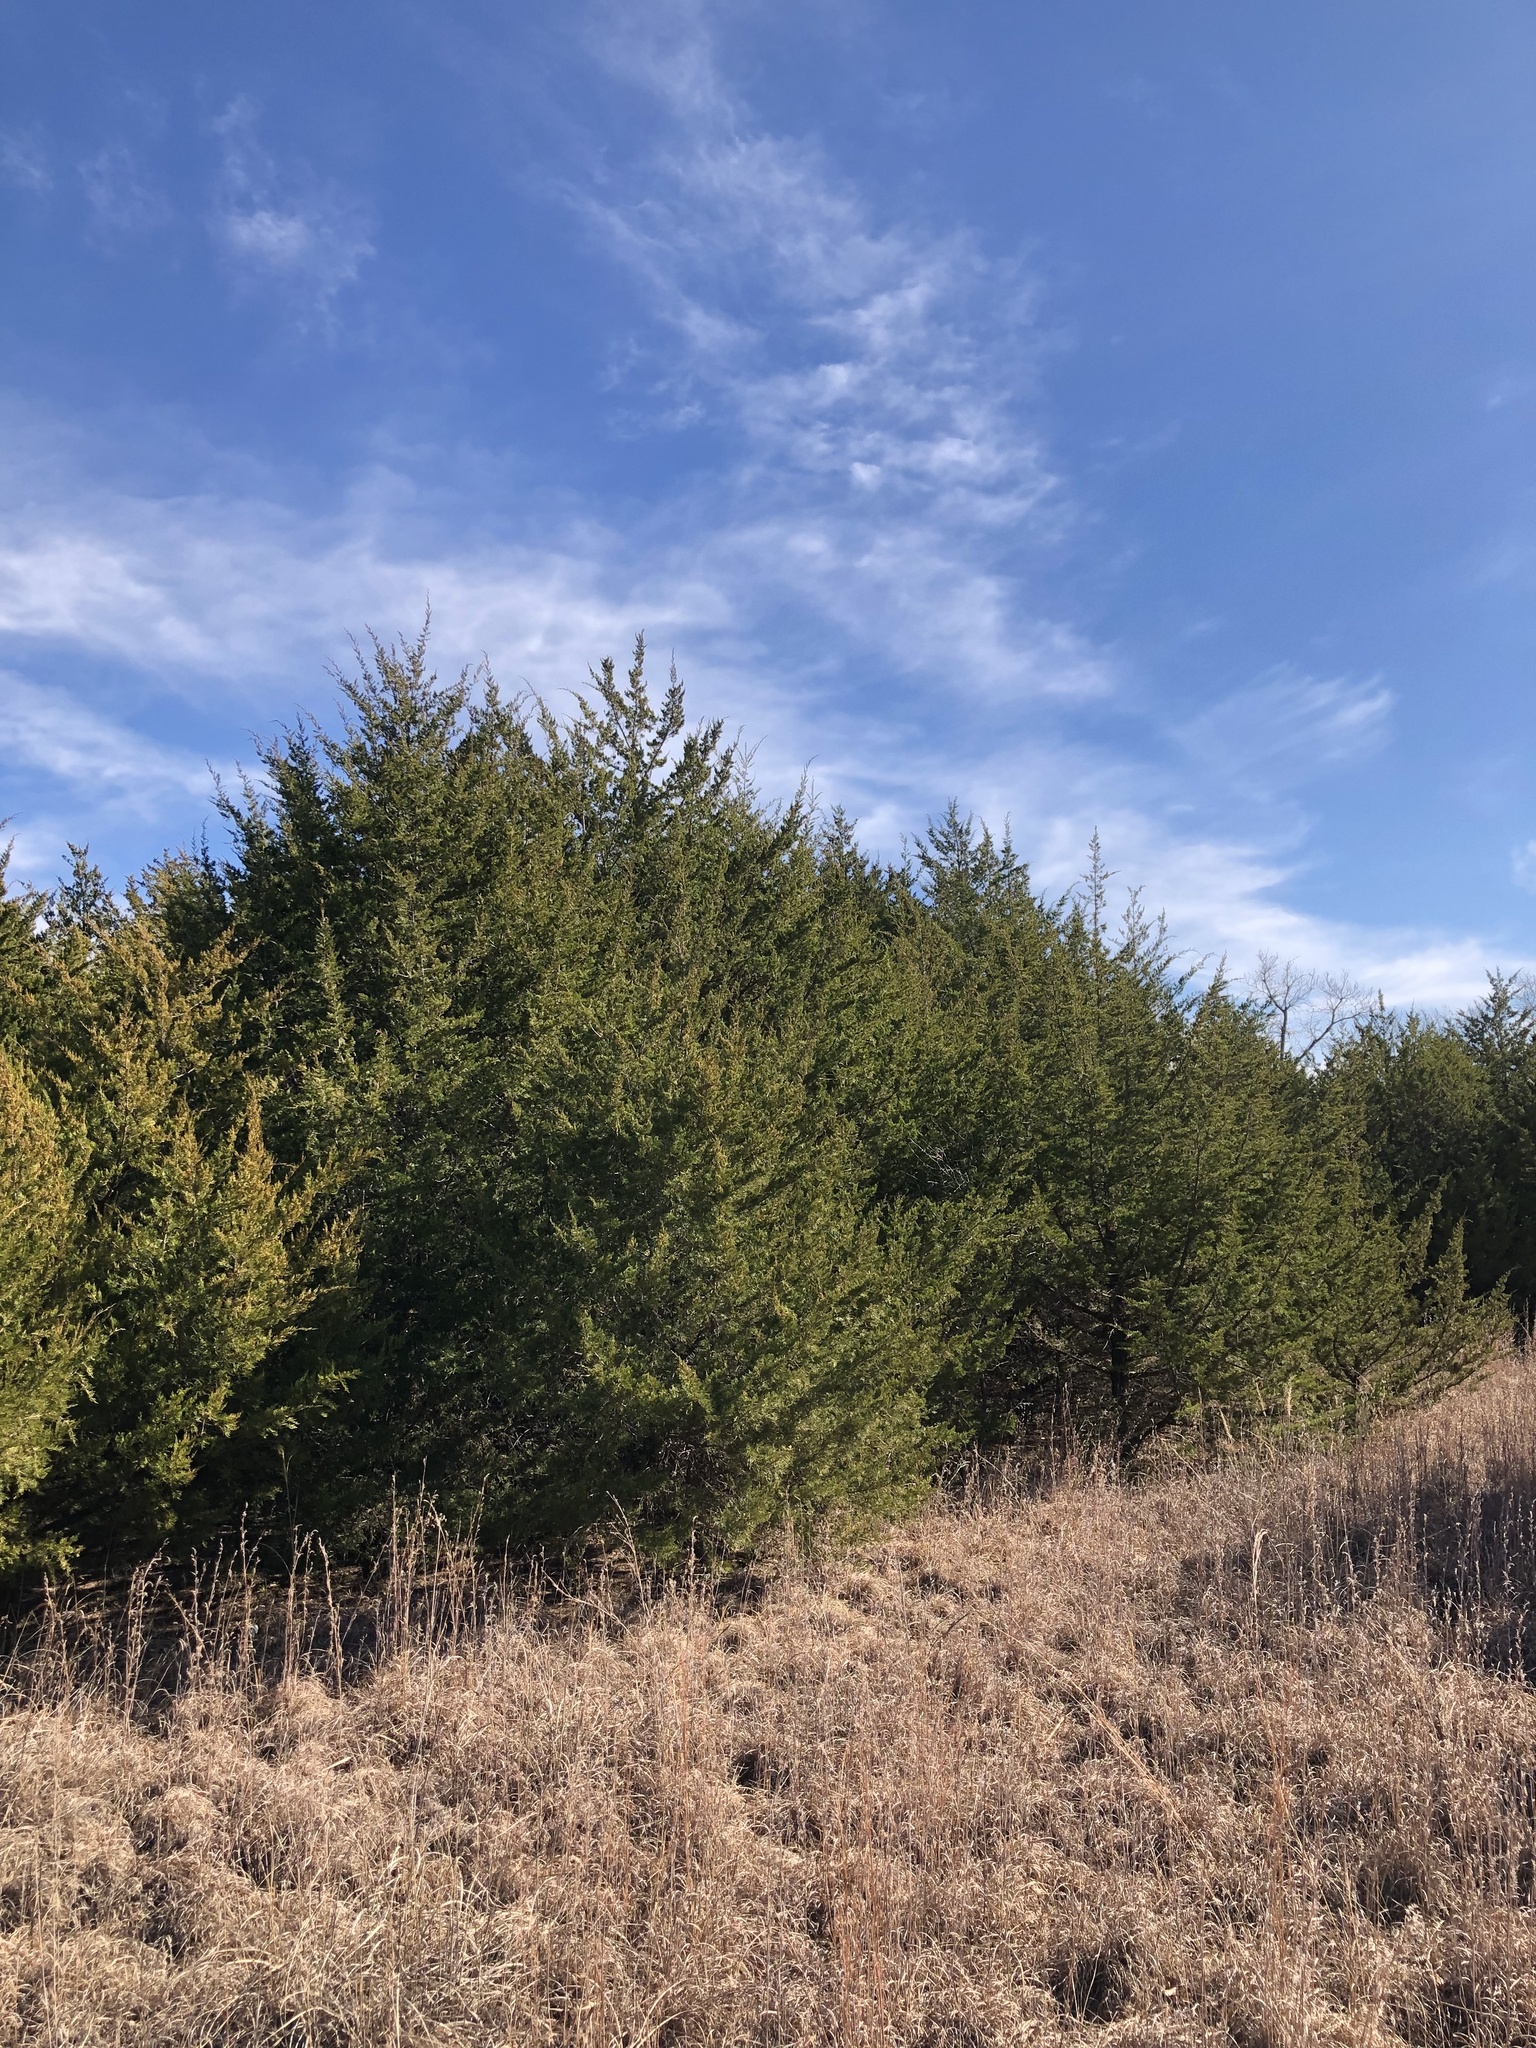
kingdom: Plantae
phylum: Tracheophyta
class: Pinopsida
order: Pinales
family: Cupressaceae
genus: Juniperus
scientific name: Juniperus virginiana
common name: Red juniper
